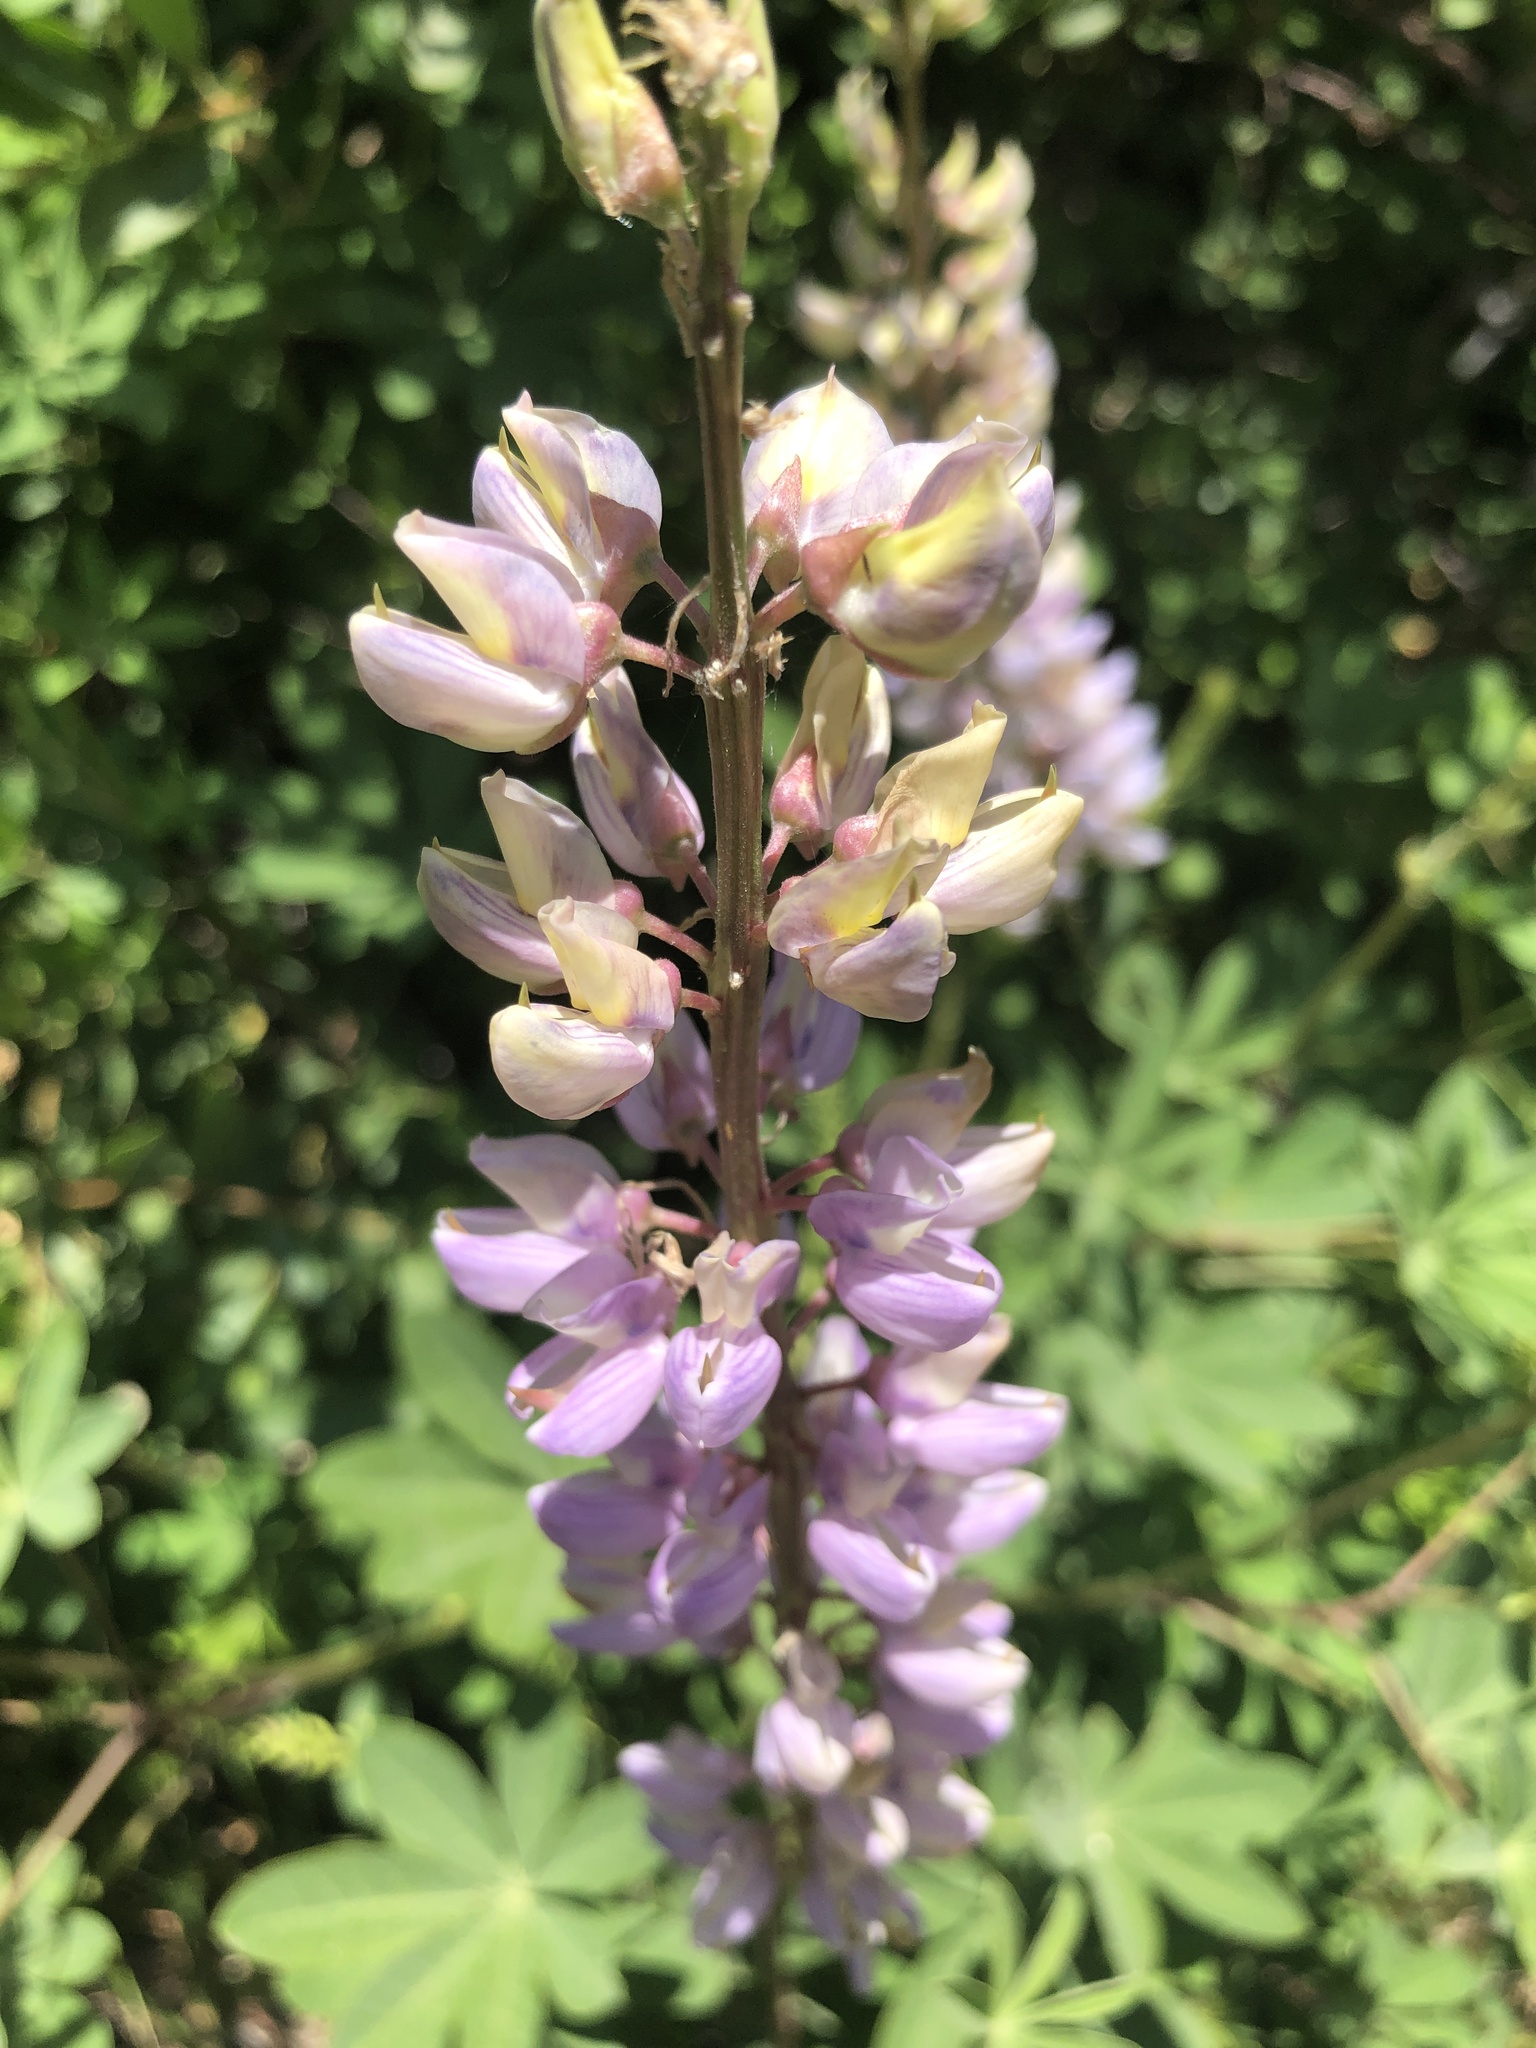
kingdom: Plantae
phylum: Tracheophyta
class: Magnoliopsida
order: Fabales
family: Fabaceae
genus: Lupinus
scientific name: Lupinus latifolius
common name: Broad-leaved lupine
